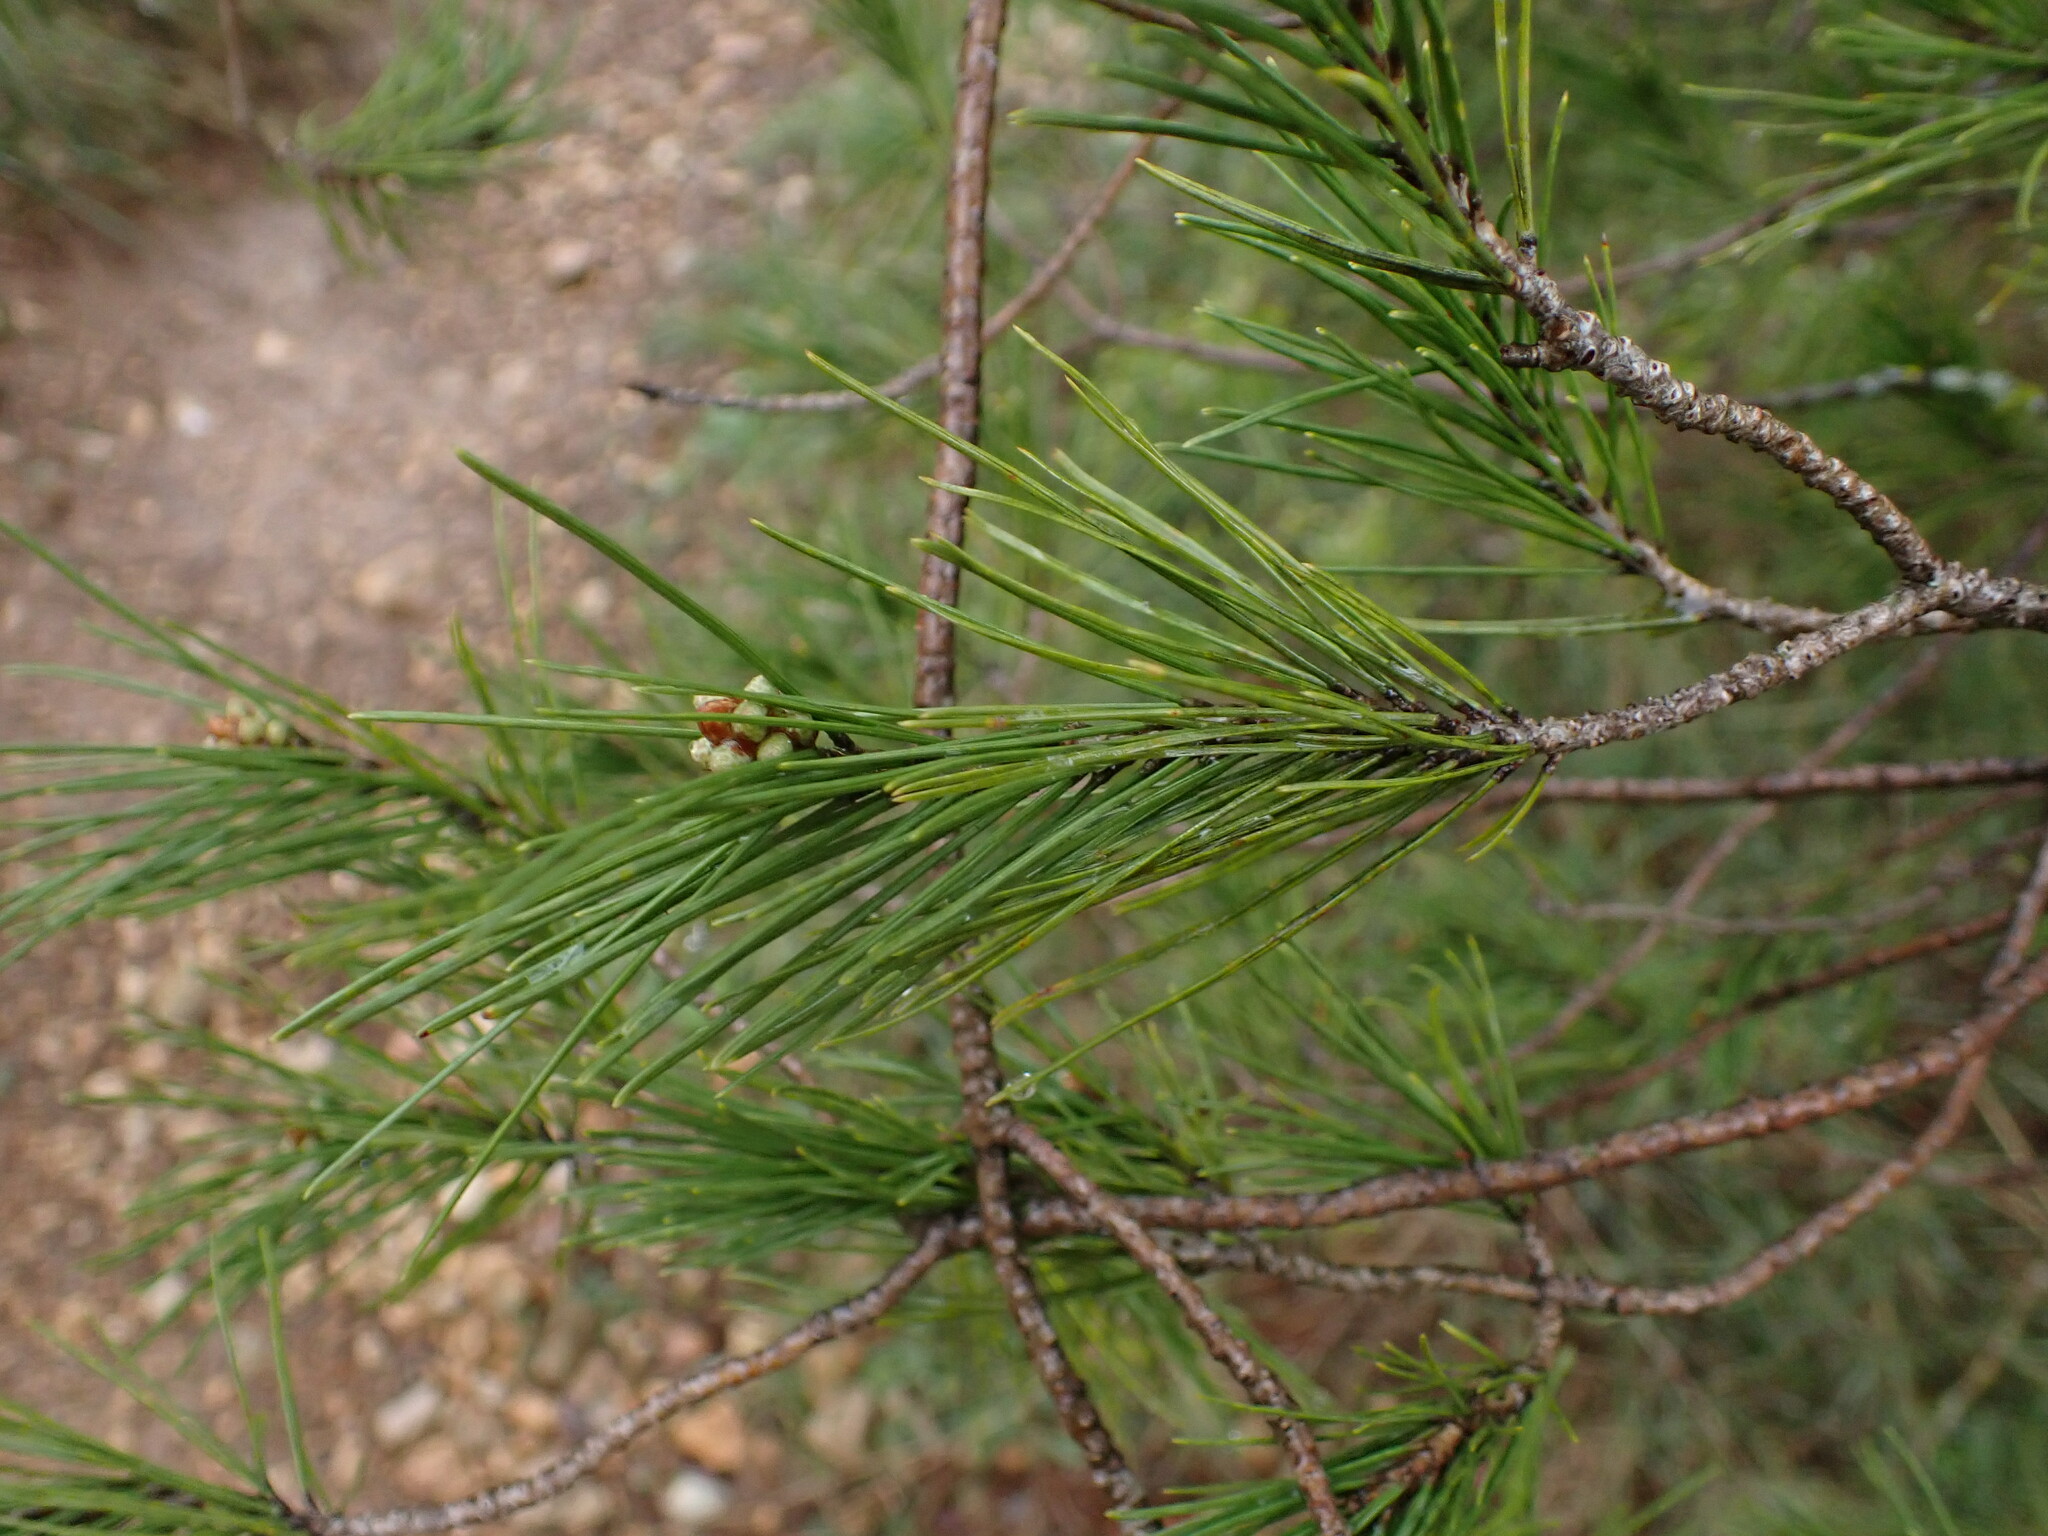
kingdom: Plantae
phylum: Tracheophyta
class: Pinopsida
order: Pinales
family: Pinaceae
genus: Pinus
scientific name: Pinus halepensis
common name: Aleppo pine
